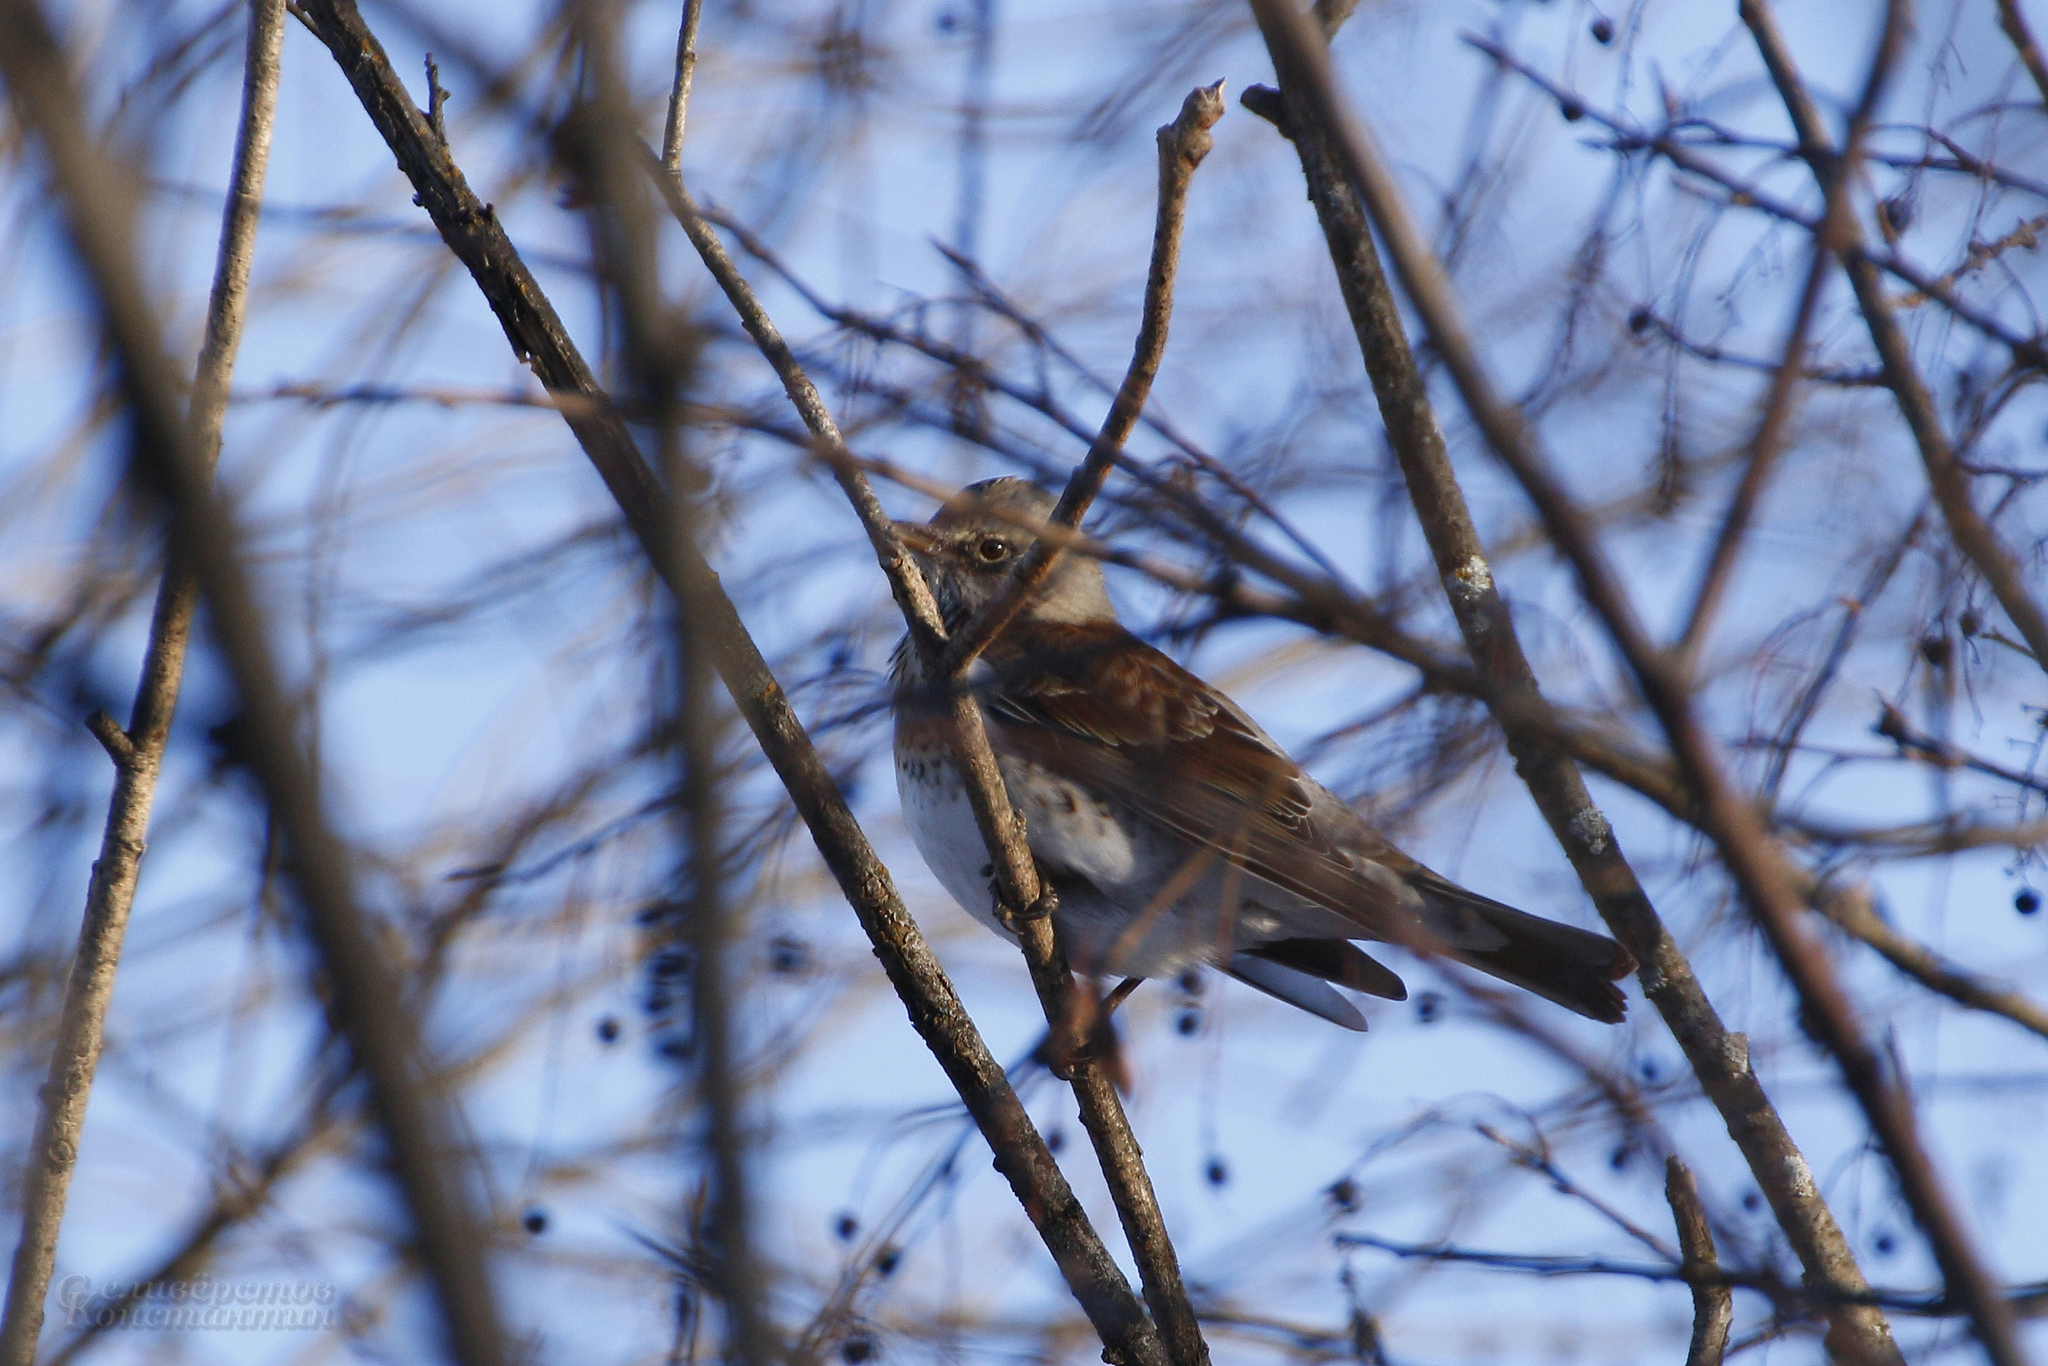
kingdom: Animalia
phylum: Chordata
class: Aves
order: Passeriformes
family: Turdidae
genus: Turdus
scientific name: Turdus pilaris
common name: Fieldfare
